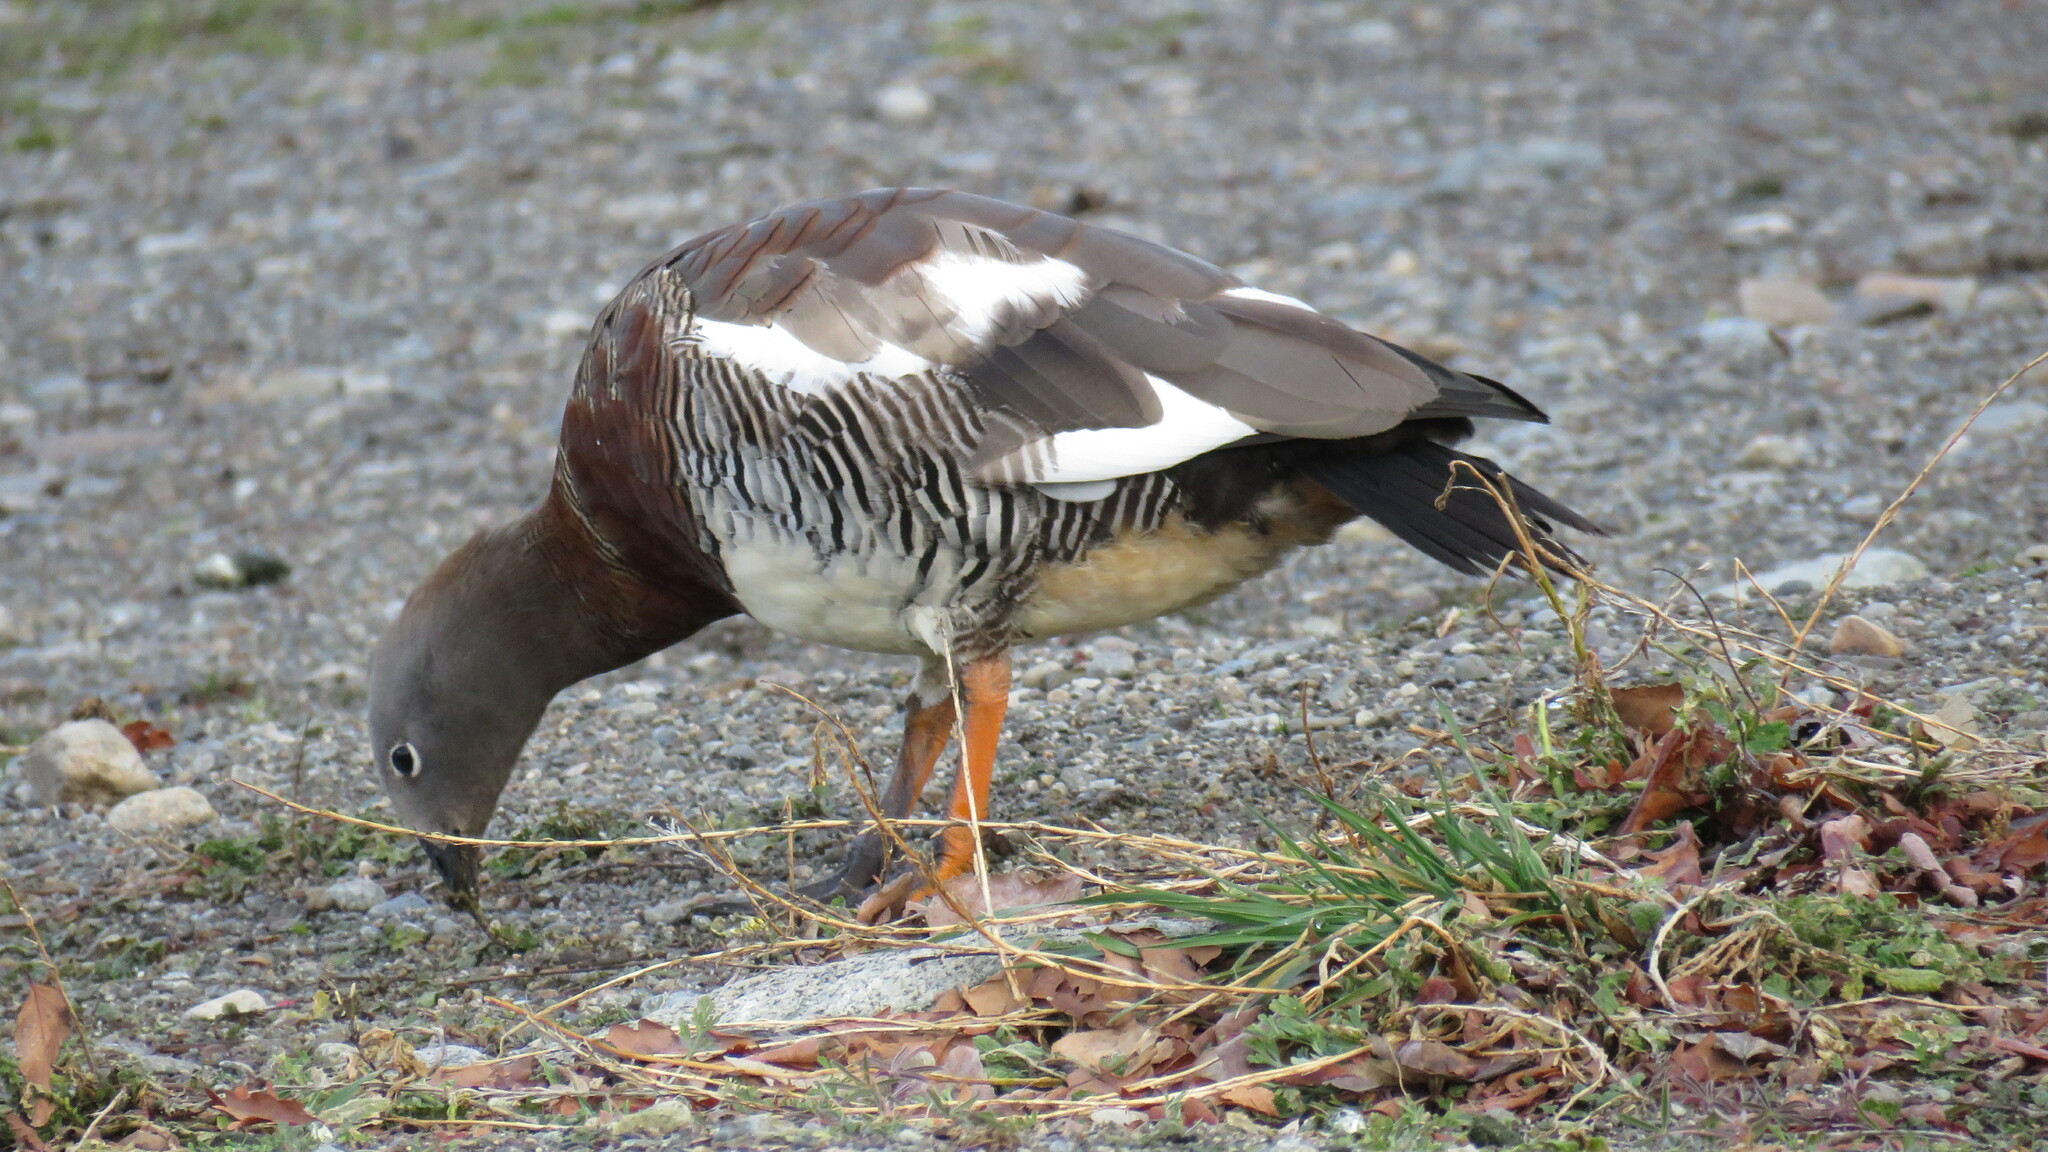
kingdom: Animalia
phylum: Chordata
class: Aves
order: Anseriformes
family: Anatidae
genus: Chloephaga
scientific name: Chloephaga poliocephala
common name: Ashy-headed goose
